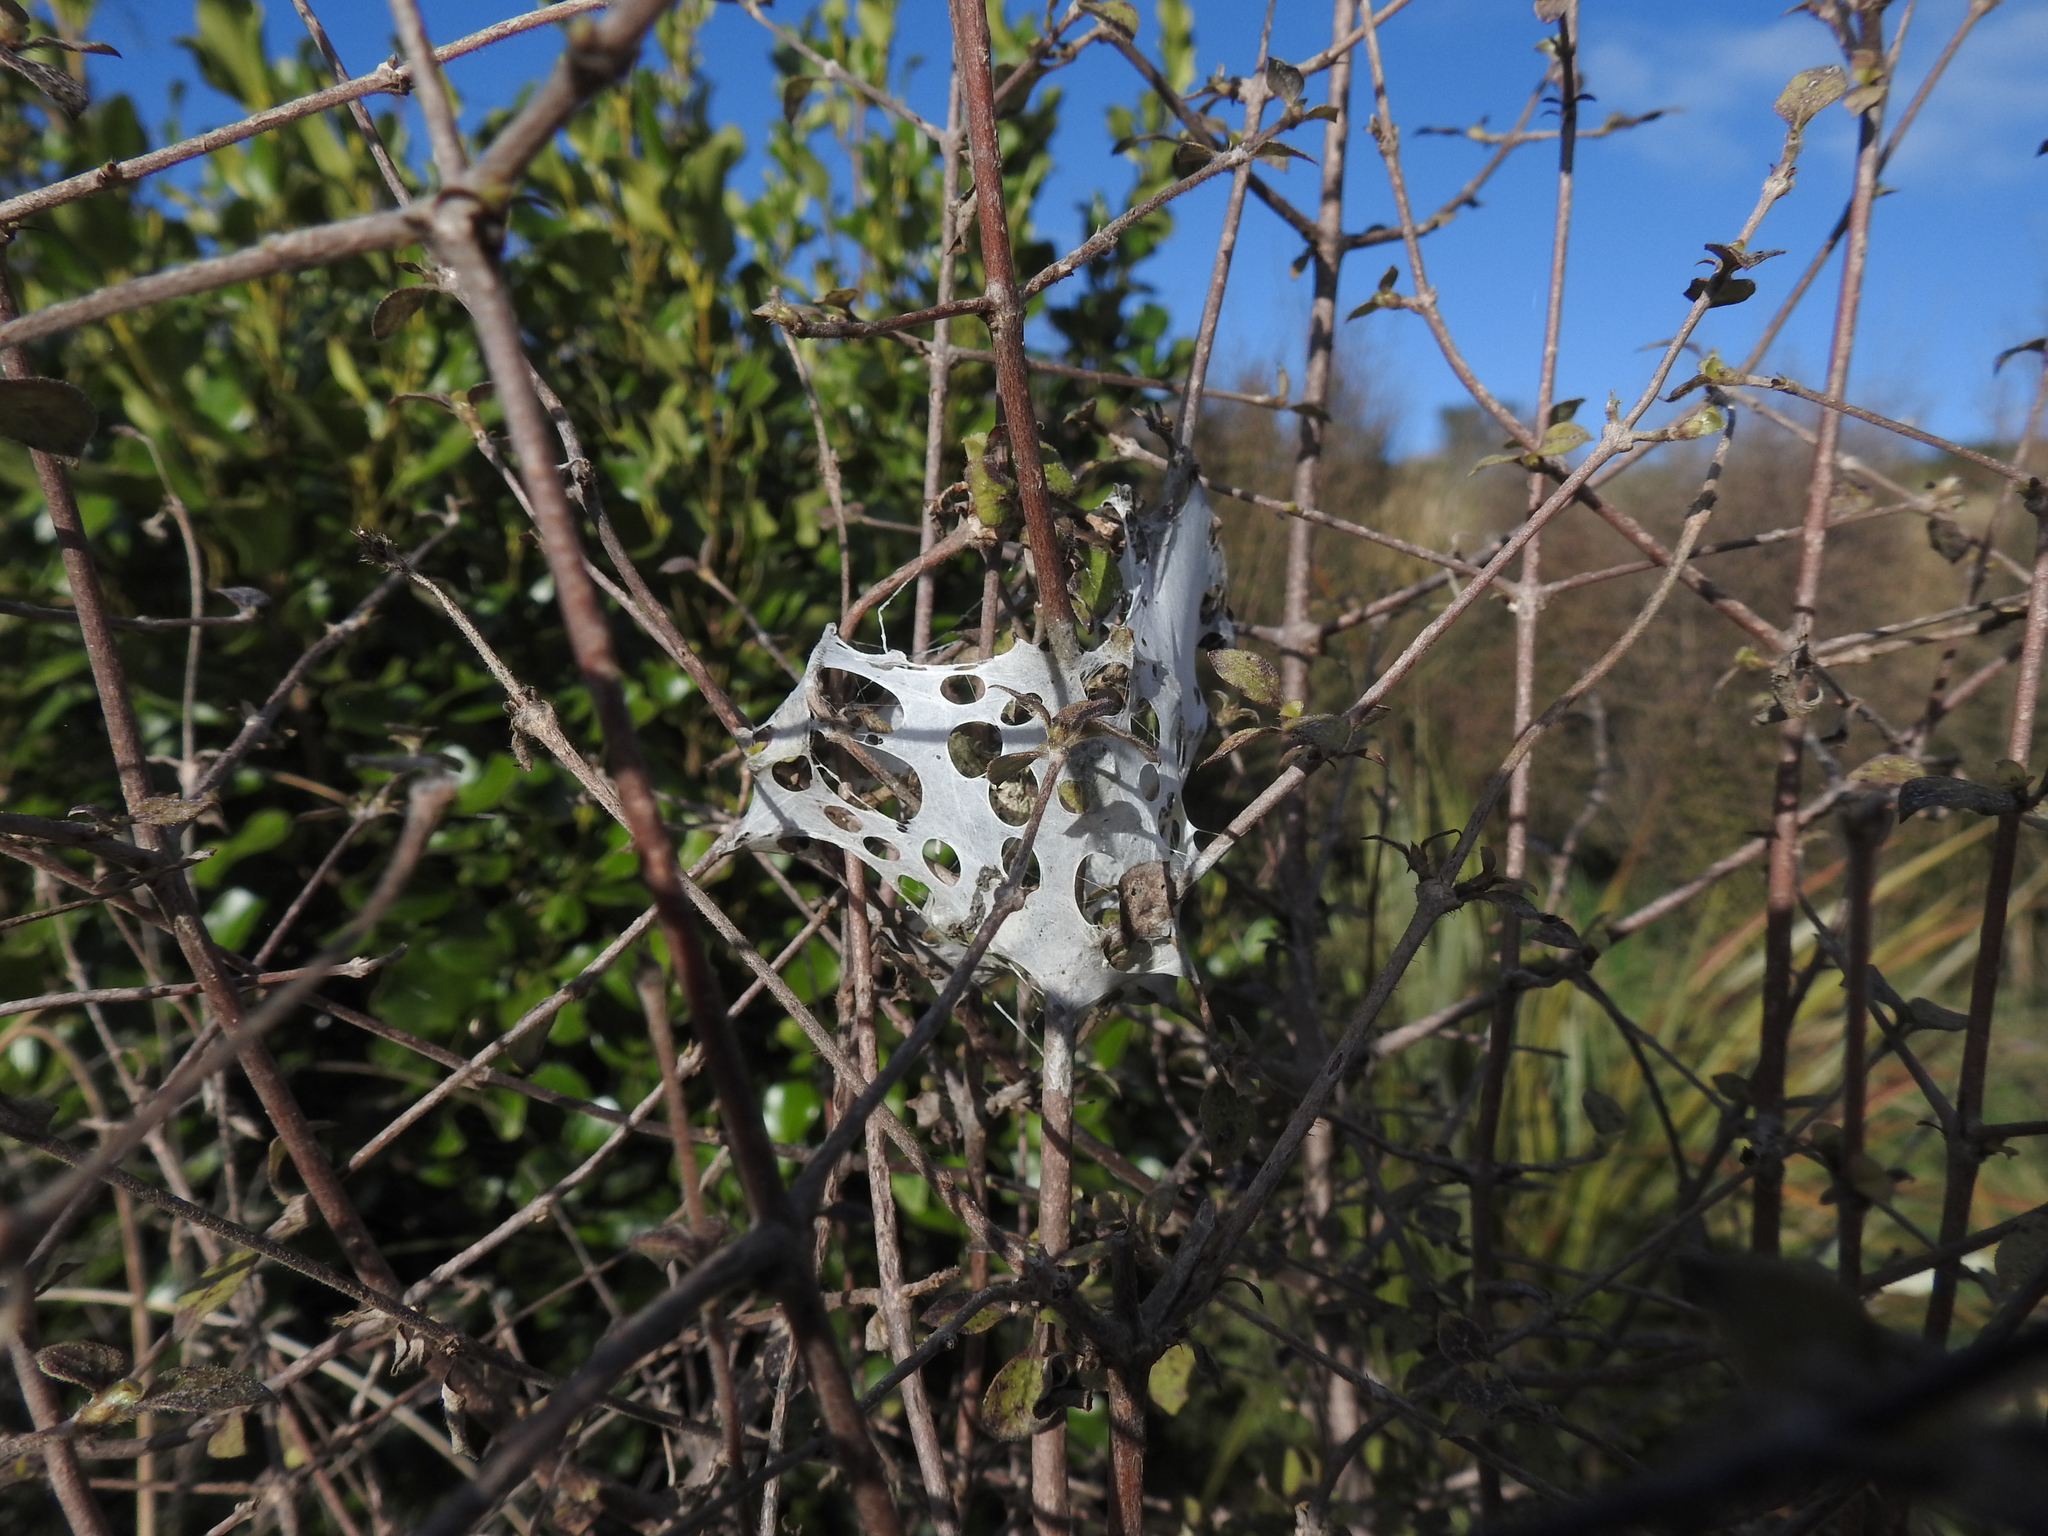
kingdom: Animalia
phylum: Arthropoda
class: Arachnida
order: Araneae
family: Pisauridae
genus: Dolomedes
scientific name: Dolomedes minor
